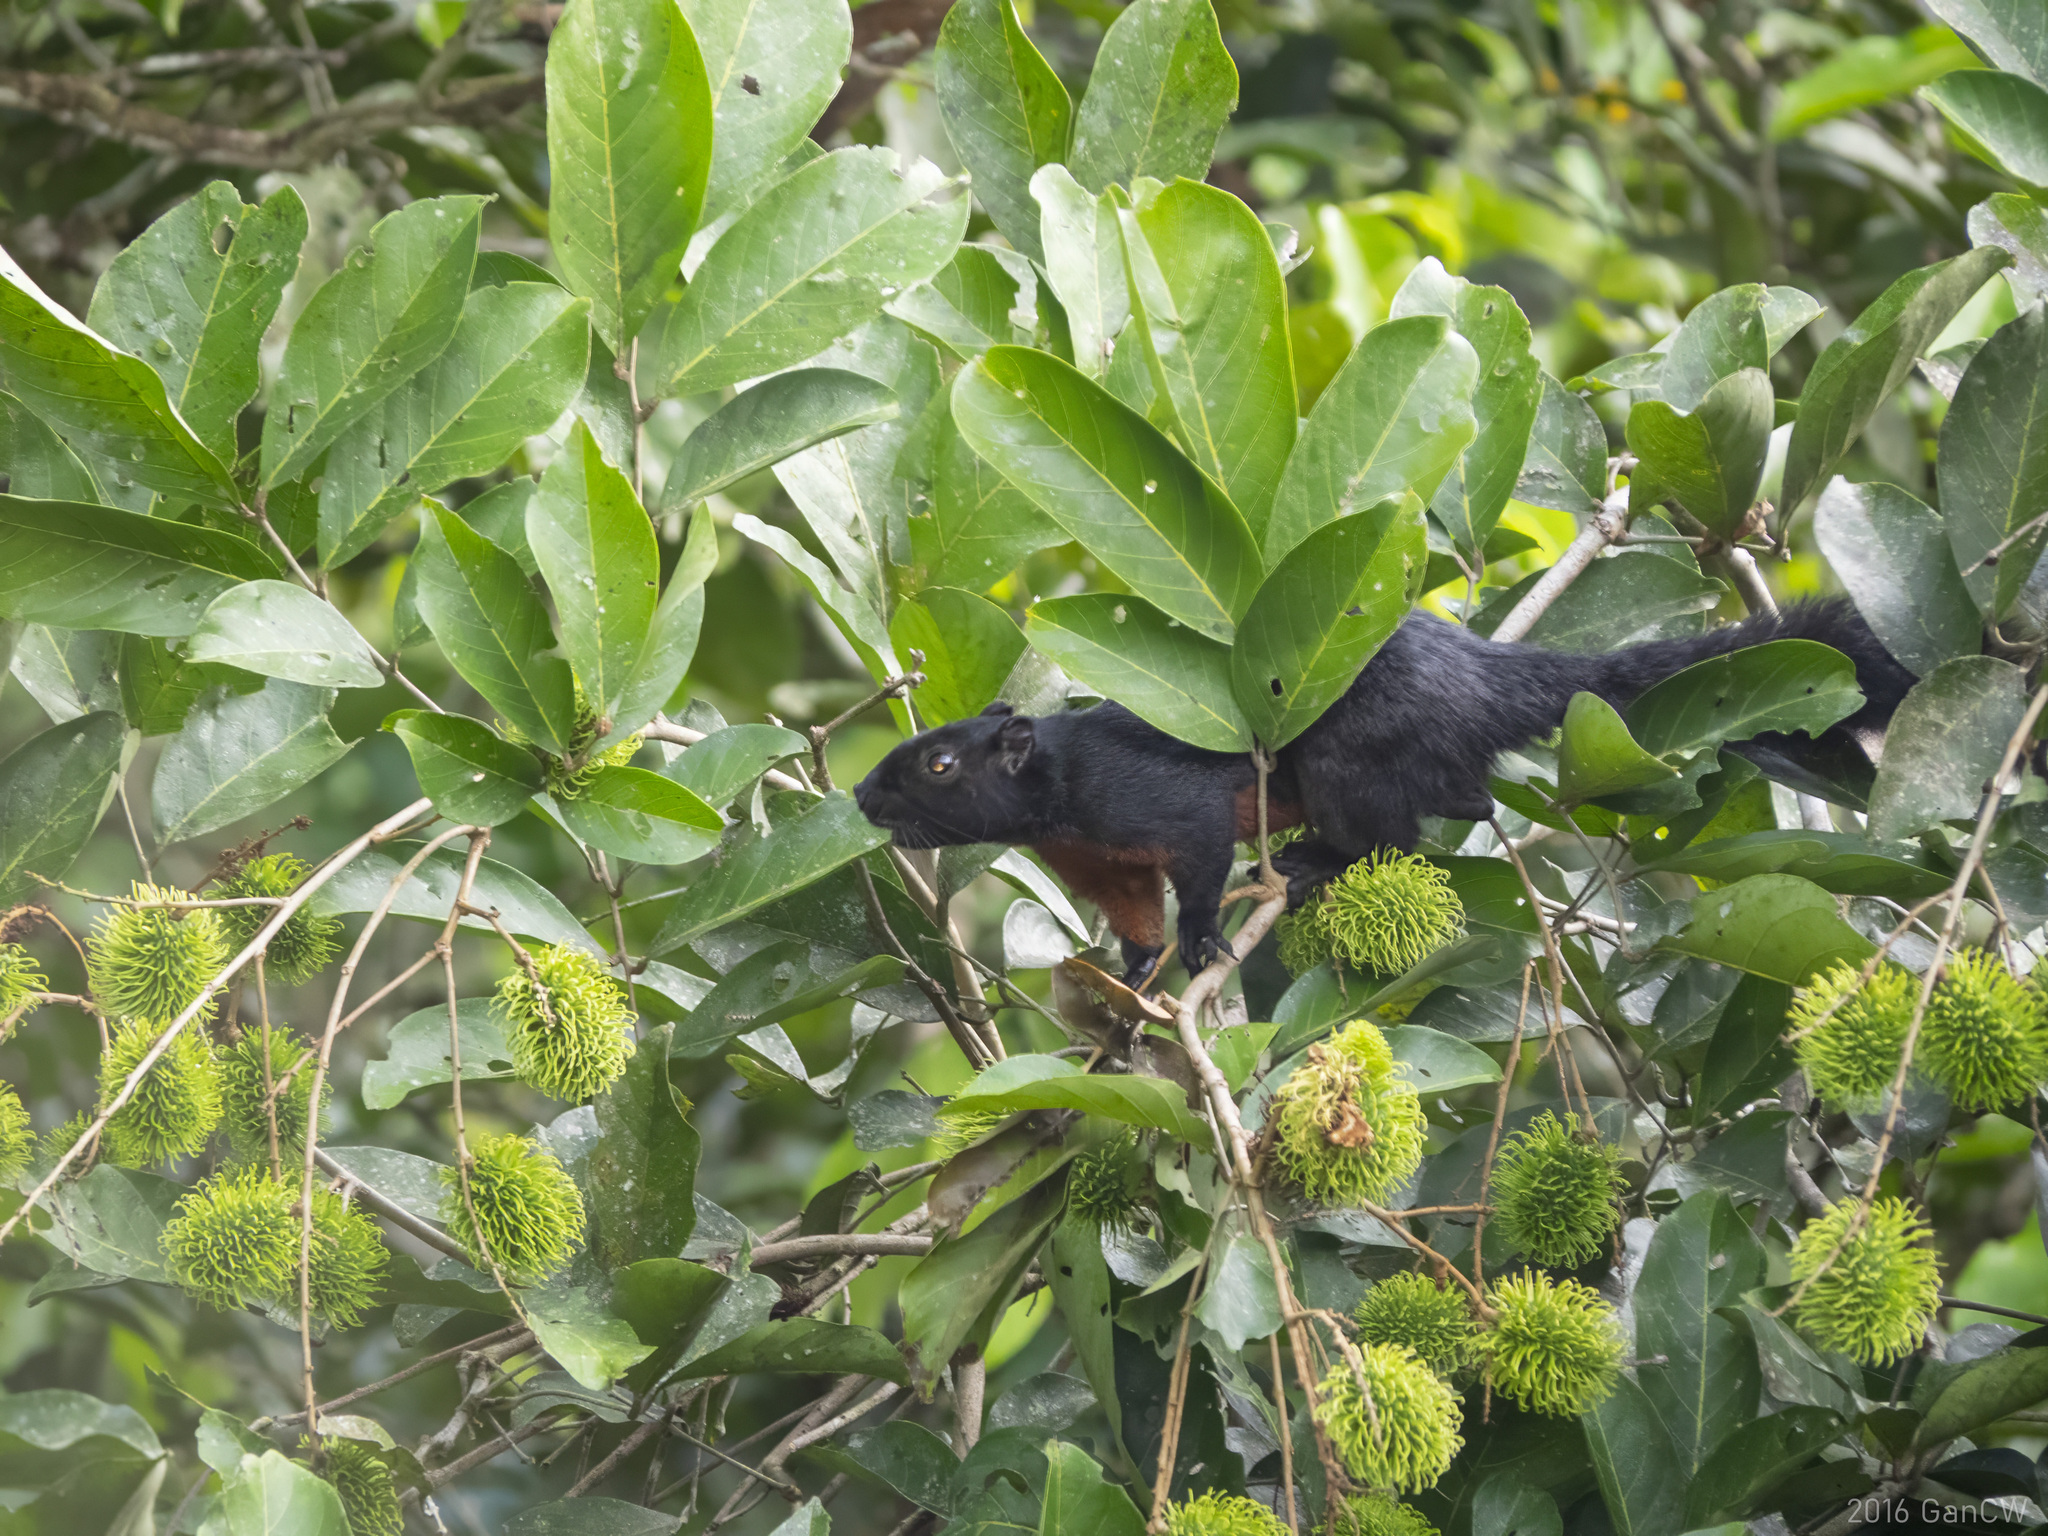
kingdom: Animalia
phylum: Chordata
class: Mammalia
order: Rodentia
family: Sciuridae
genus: Callosciurus
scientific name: Callosciurus prevostii
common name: Prevost's squirrel
